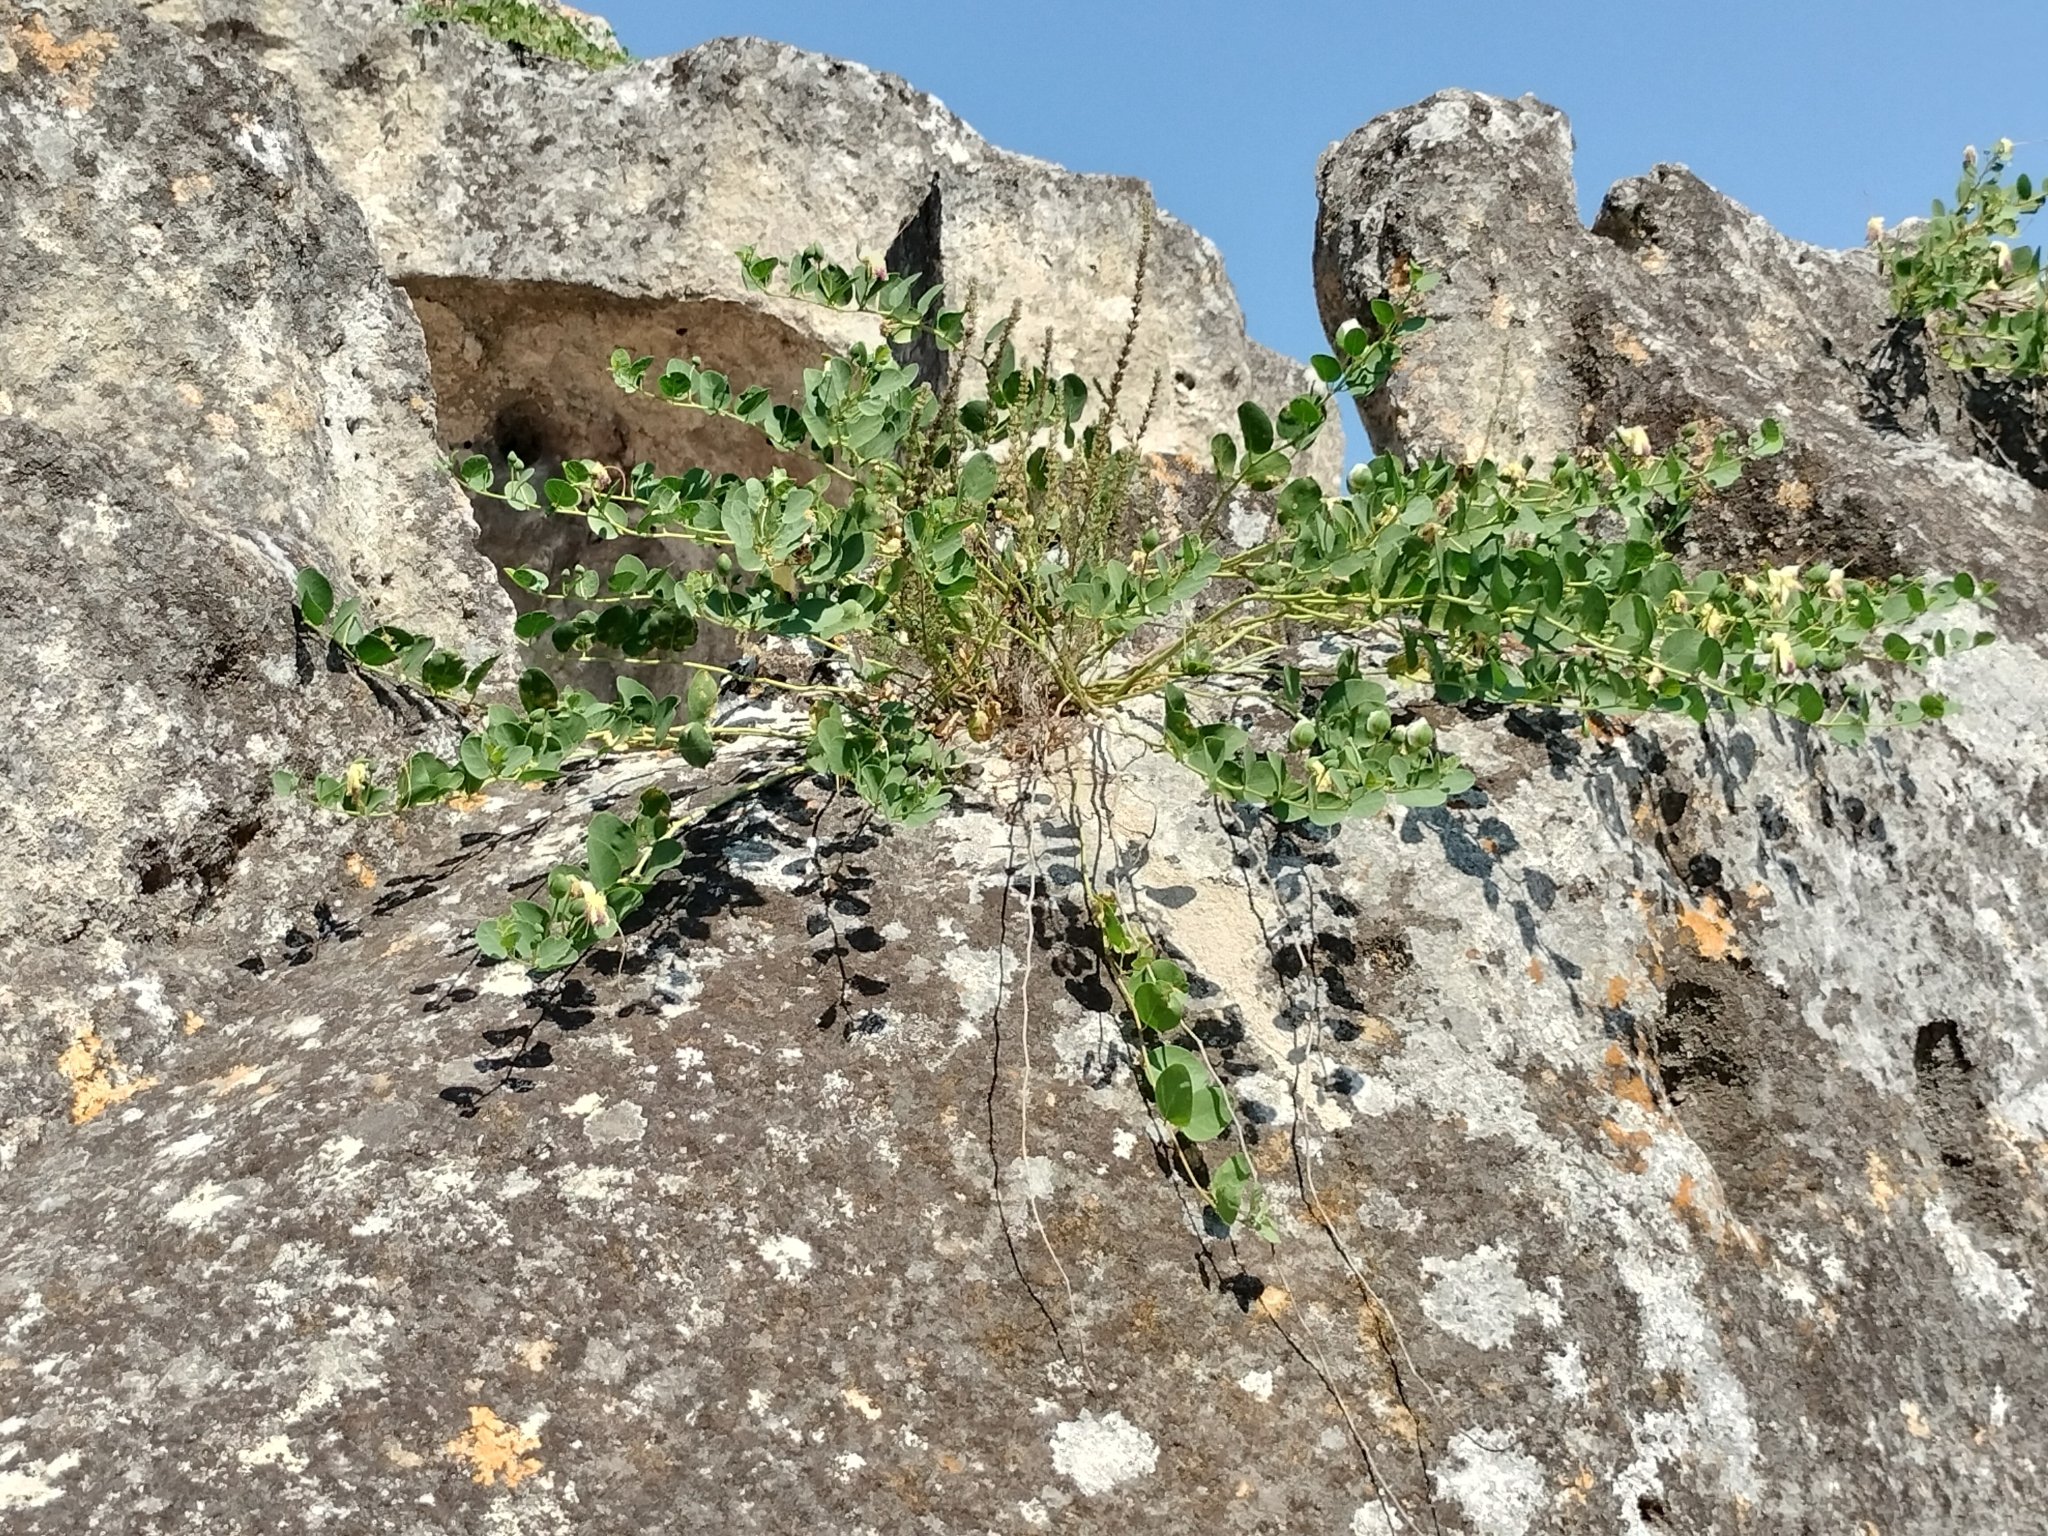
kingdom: Plantae
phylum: Tracheophyta
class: Magnoliopsida
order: Brassicales
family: Capparaceae
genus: Capparis
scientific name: Capparis orientalis
